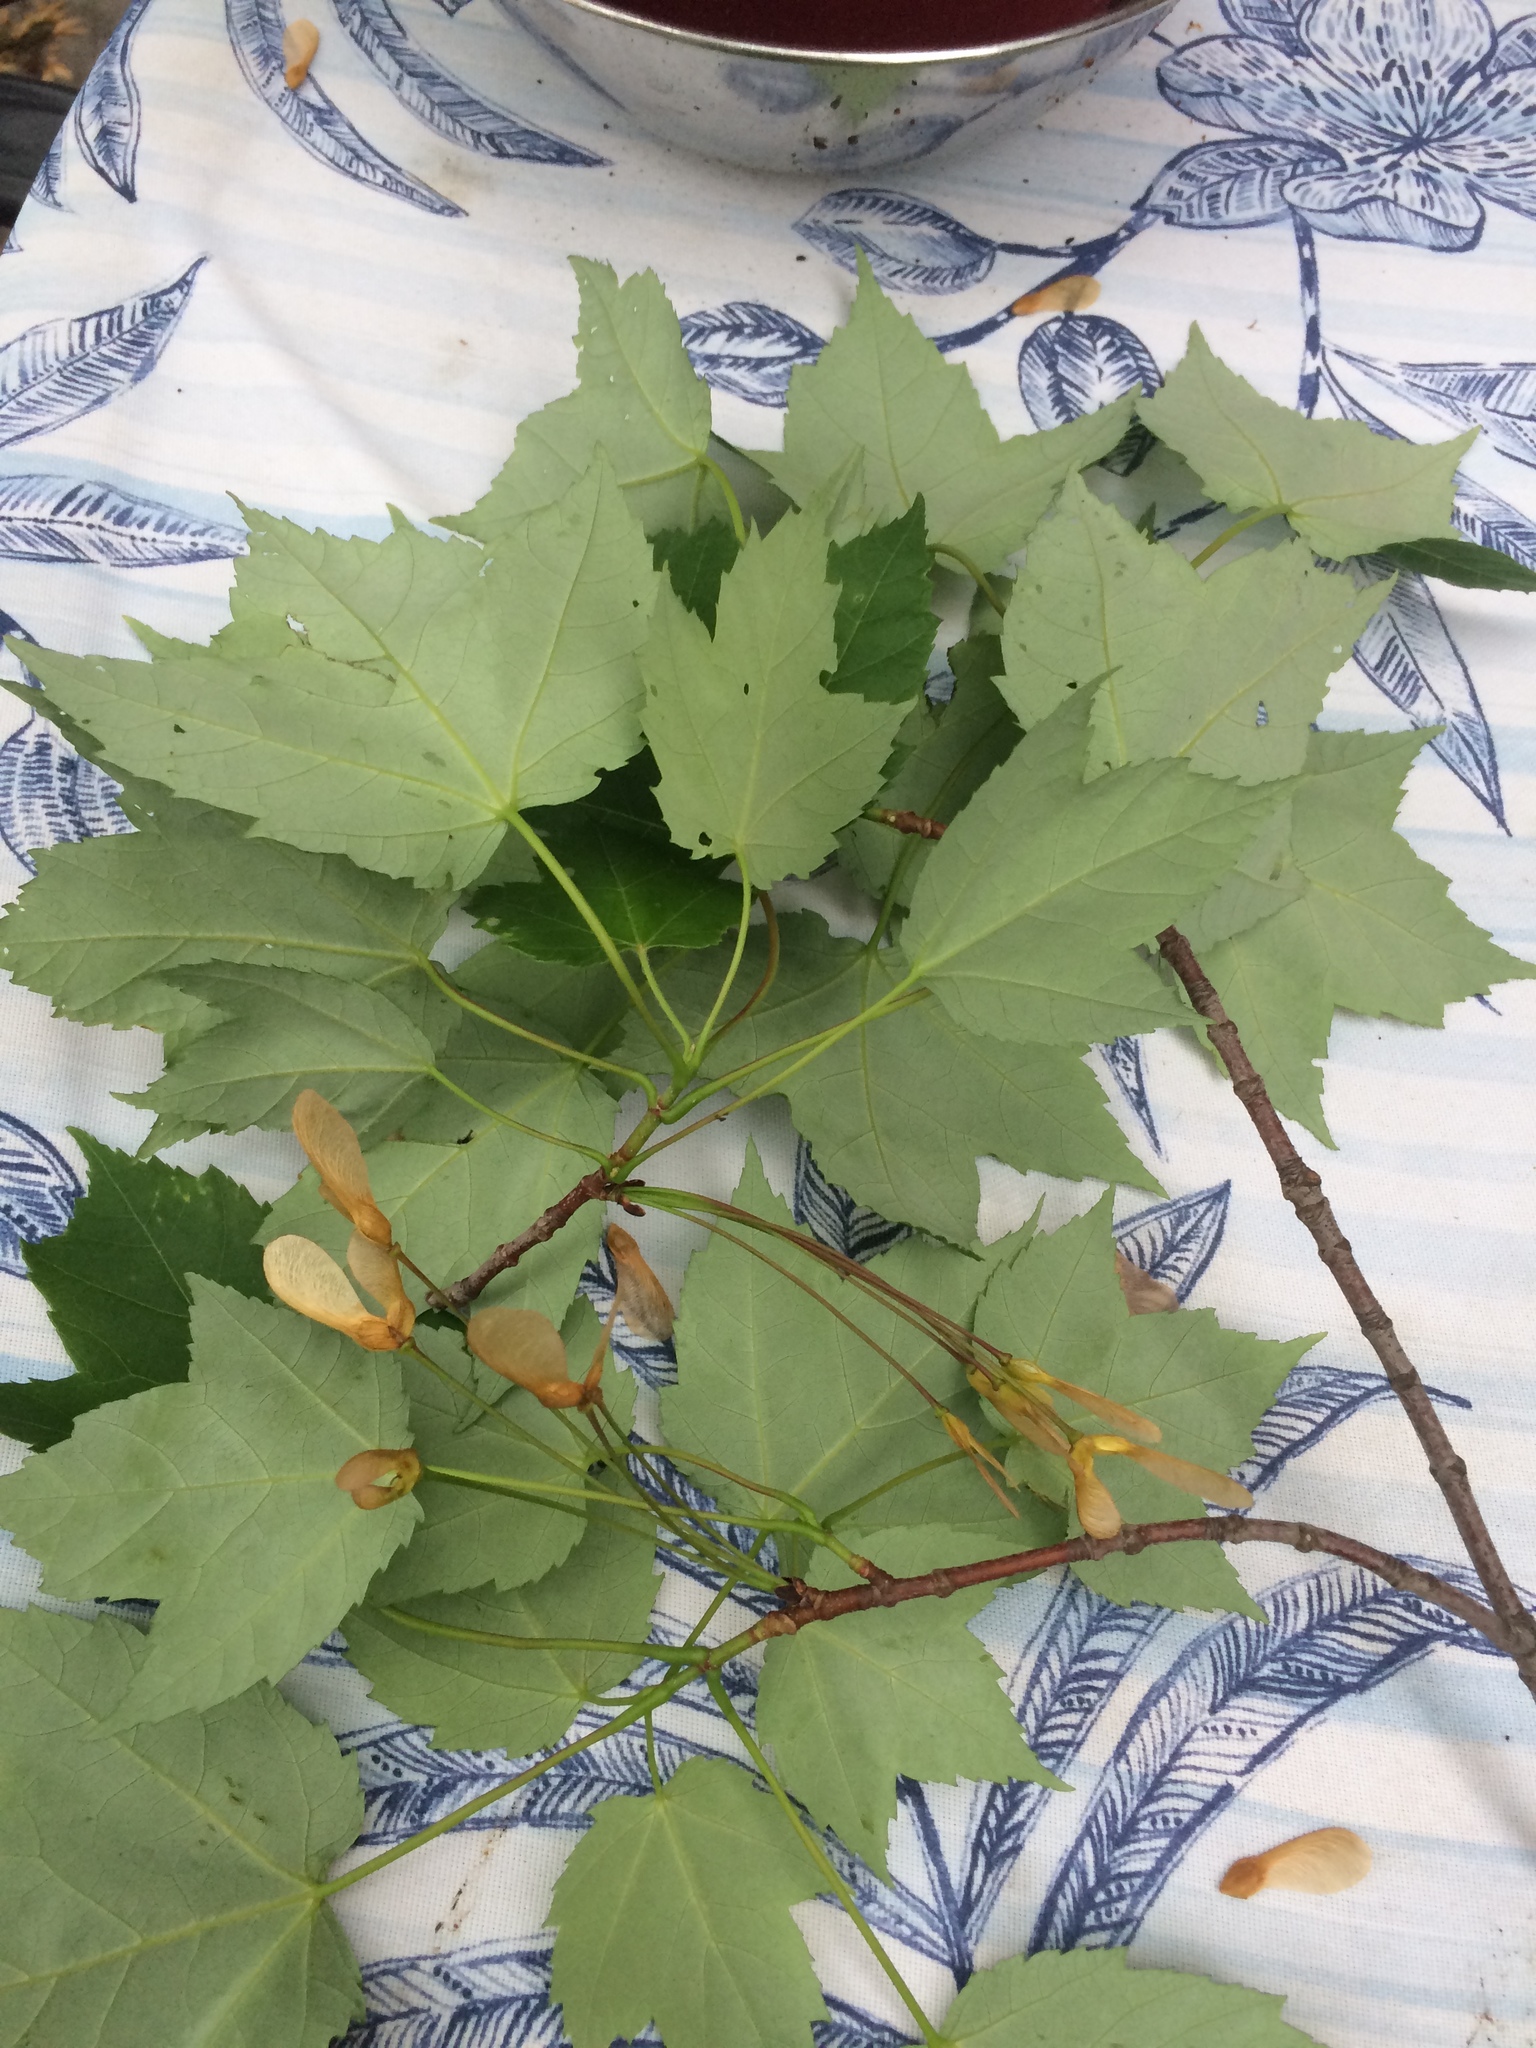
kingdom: Plantae
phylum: Tracheophyta
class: Magnoliopsida
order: Sapindales
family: Sapindaceae
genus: Acer
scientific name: Acer rubrum
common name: Red maple
